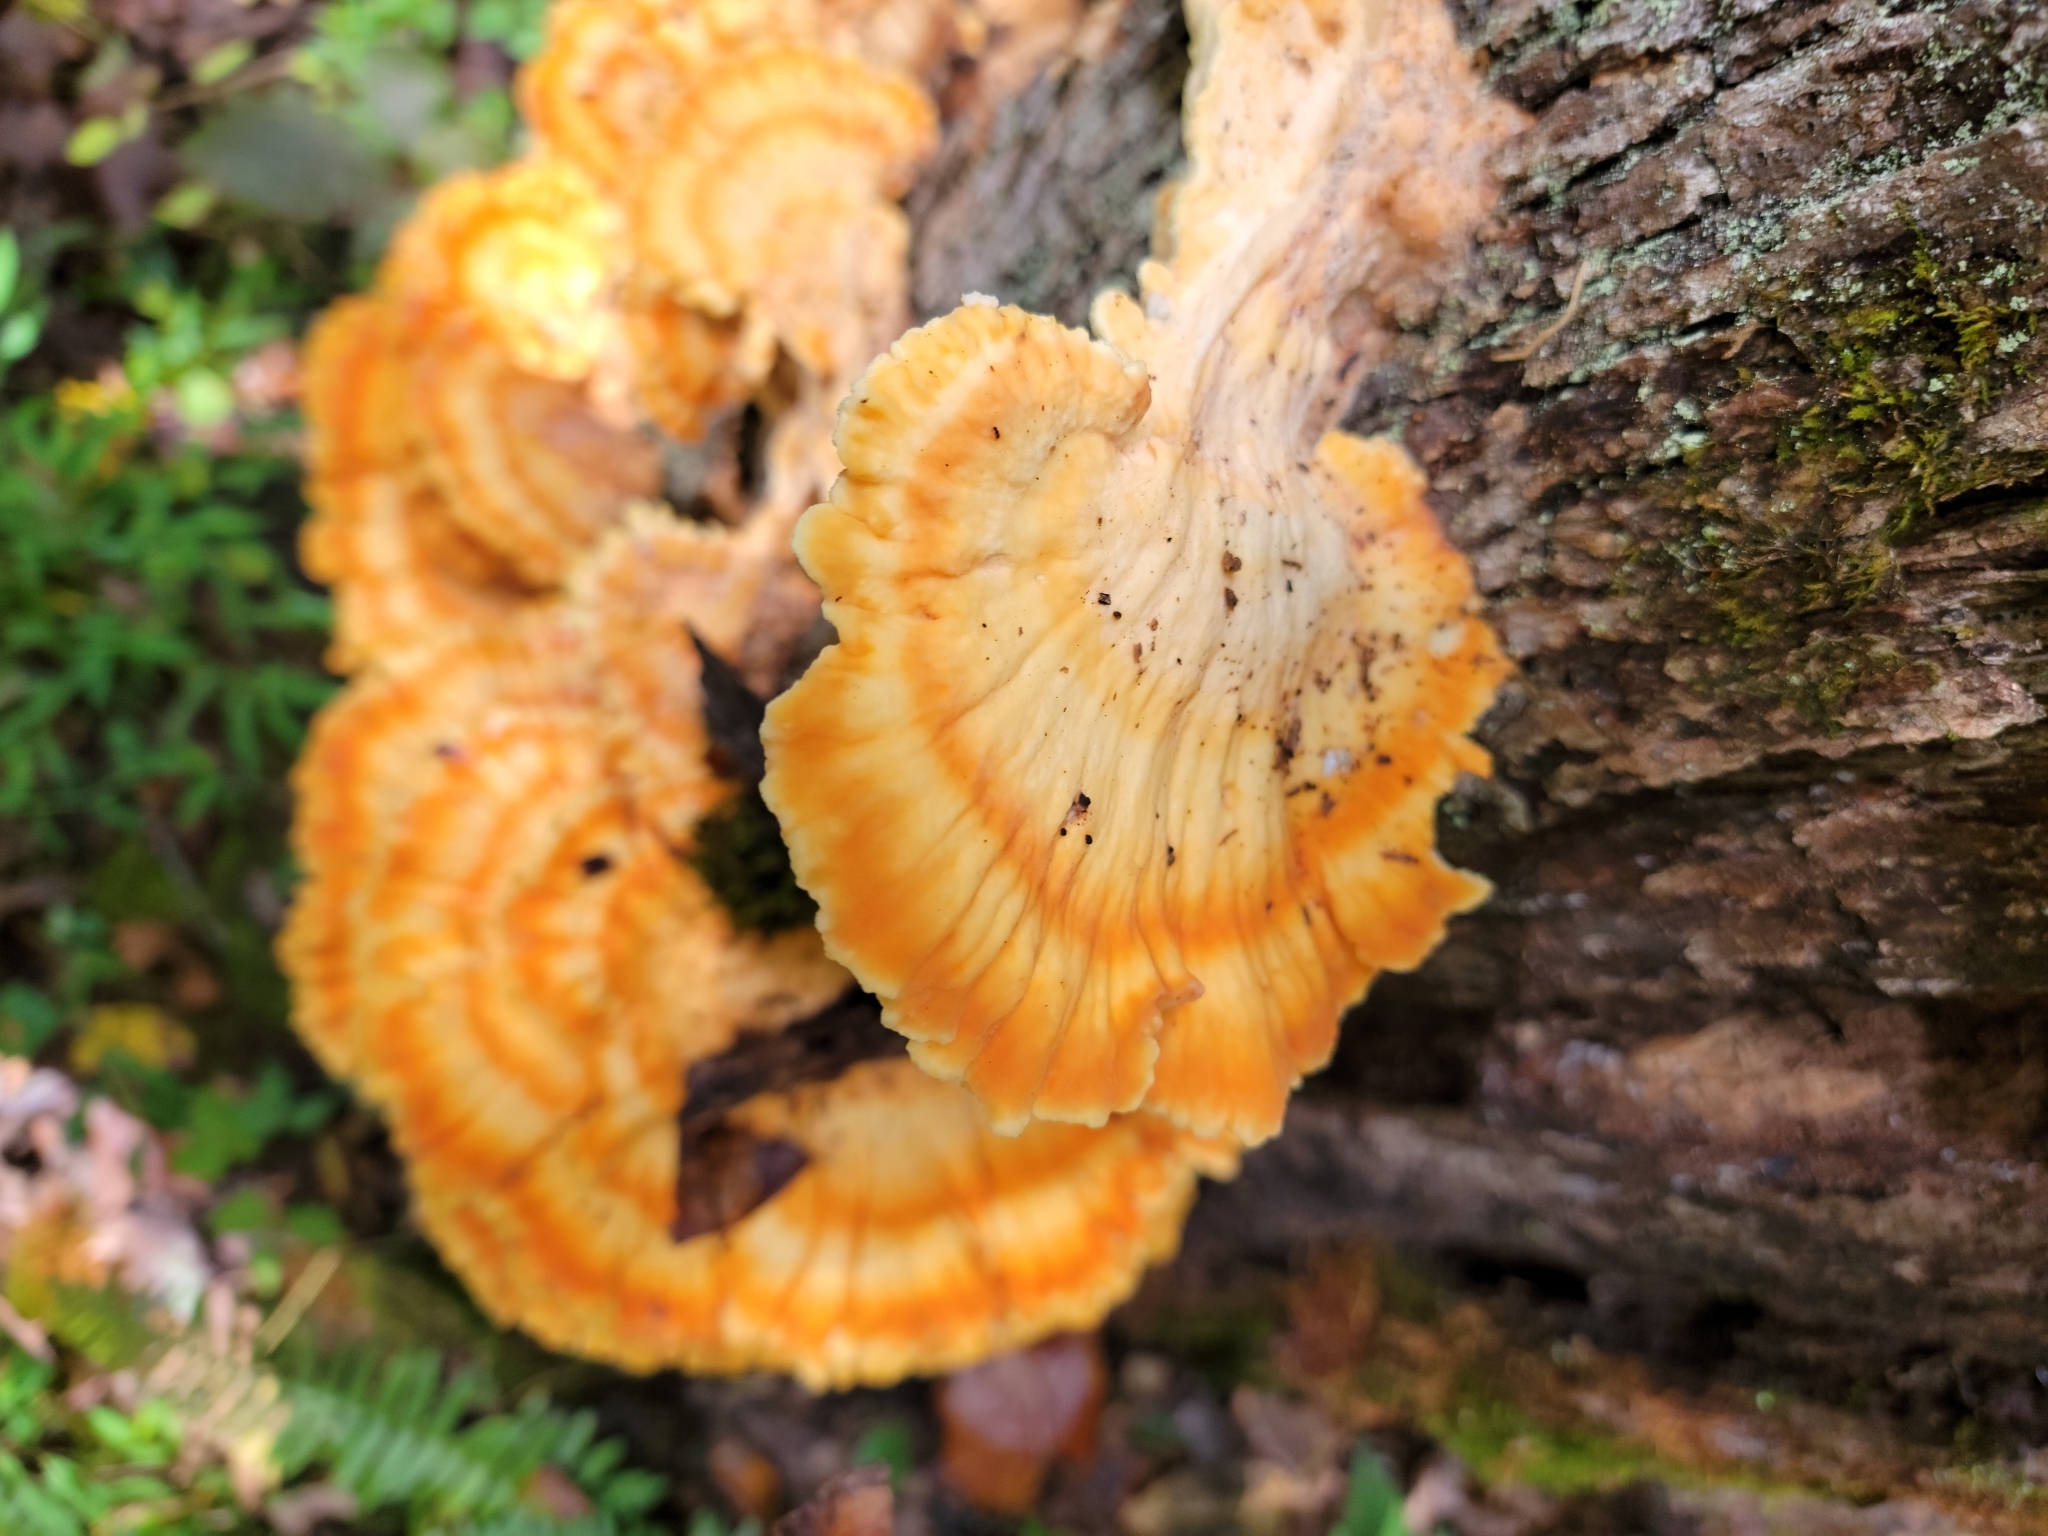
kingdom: Fungi
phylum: Basidiomycota
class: Agaricomycetes
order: Polyporales
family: Laetiporaceae
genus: Laetiporus
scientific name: Laetiporus sulphureus
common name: Chicken of the woods
